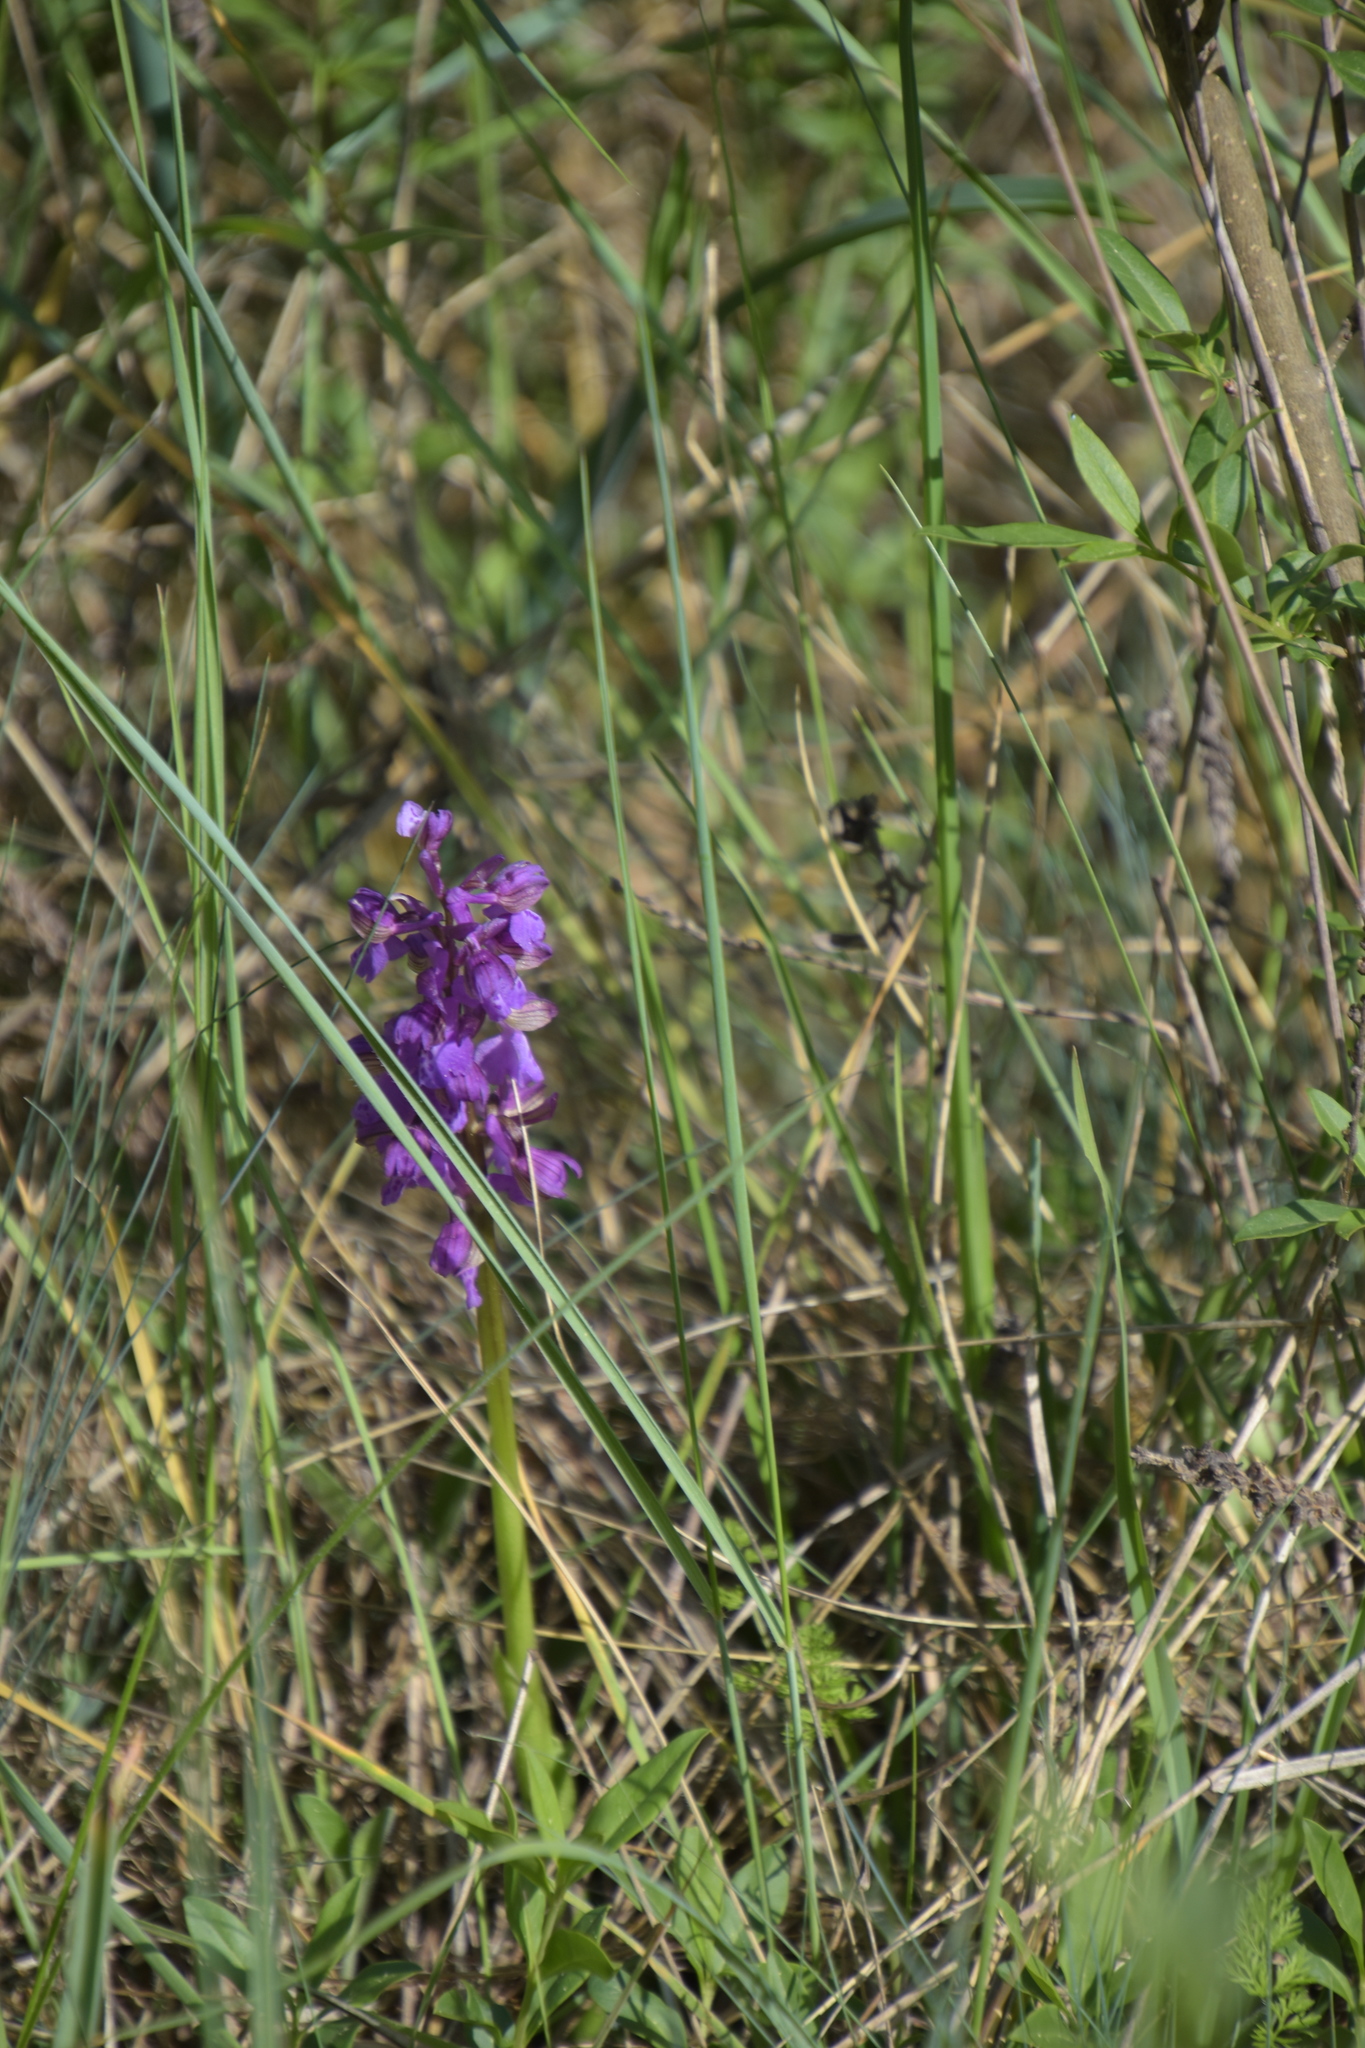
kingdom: Plantae
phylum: Tracheophyta
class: Liliopsida
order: Asparagales
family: Orchidaceae
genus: Anacamptis
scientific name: Anacamptis morio
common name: Green-winged orchid
